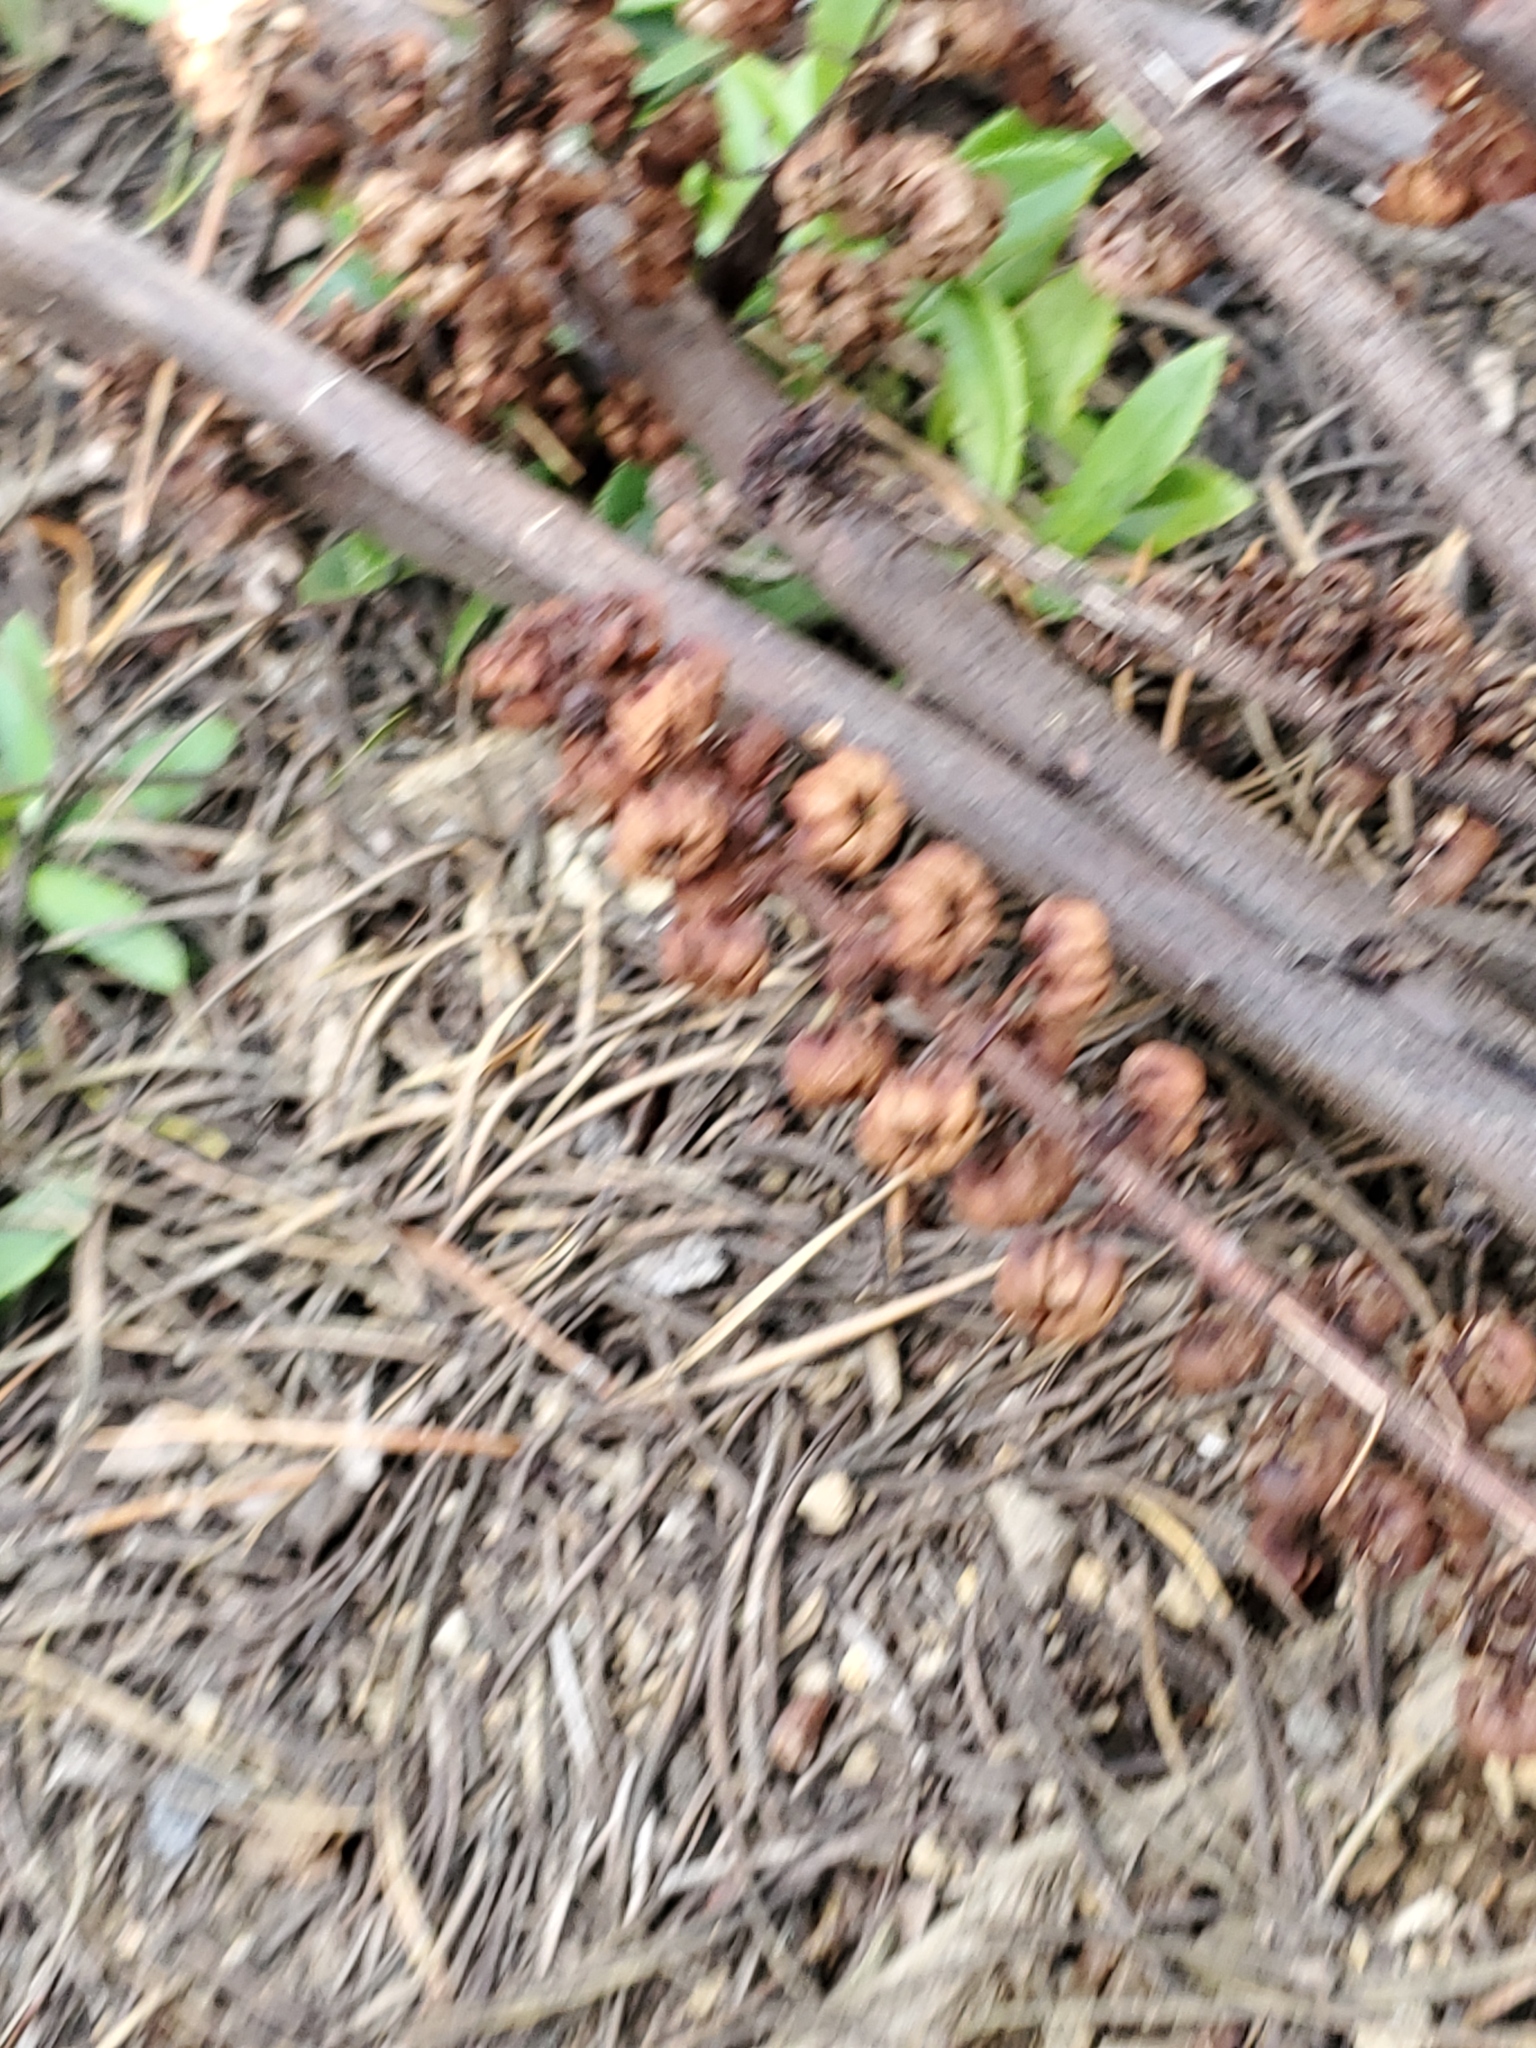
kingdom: Plantae
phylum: Tracheophyta
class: Magnoliopsida
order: Ericales
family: Ericaceae
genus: Pterospora
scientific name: Pterospora andromedea
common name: Giant bird's-nest
